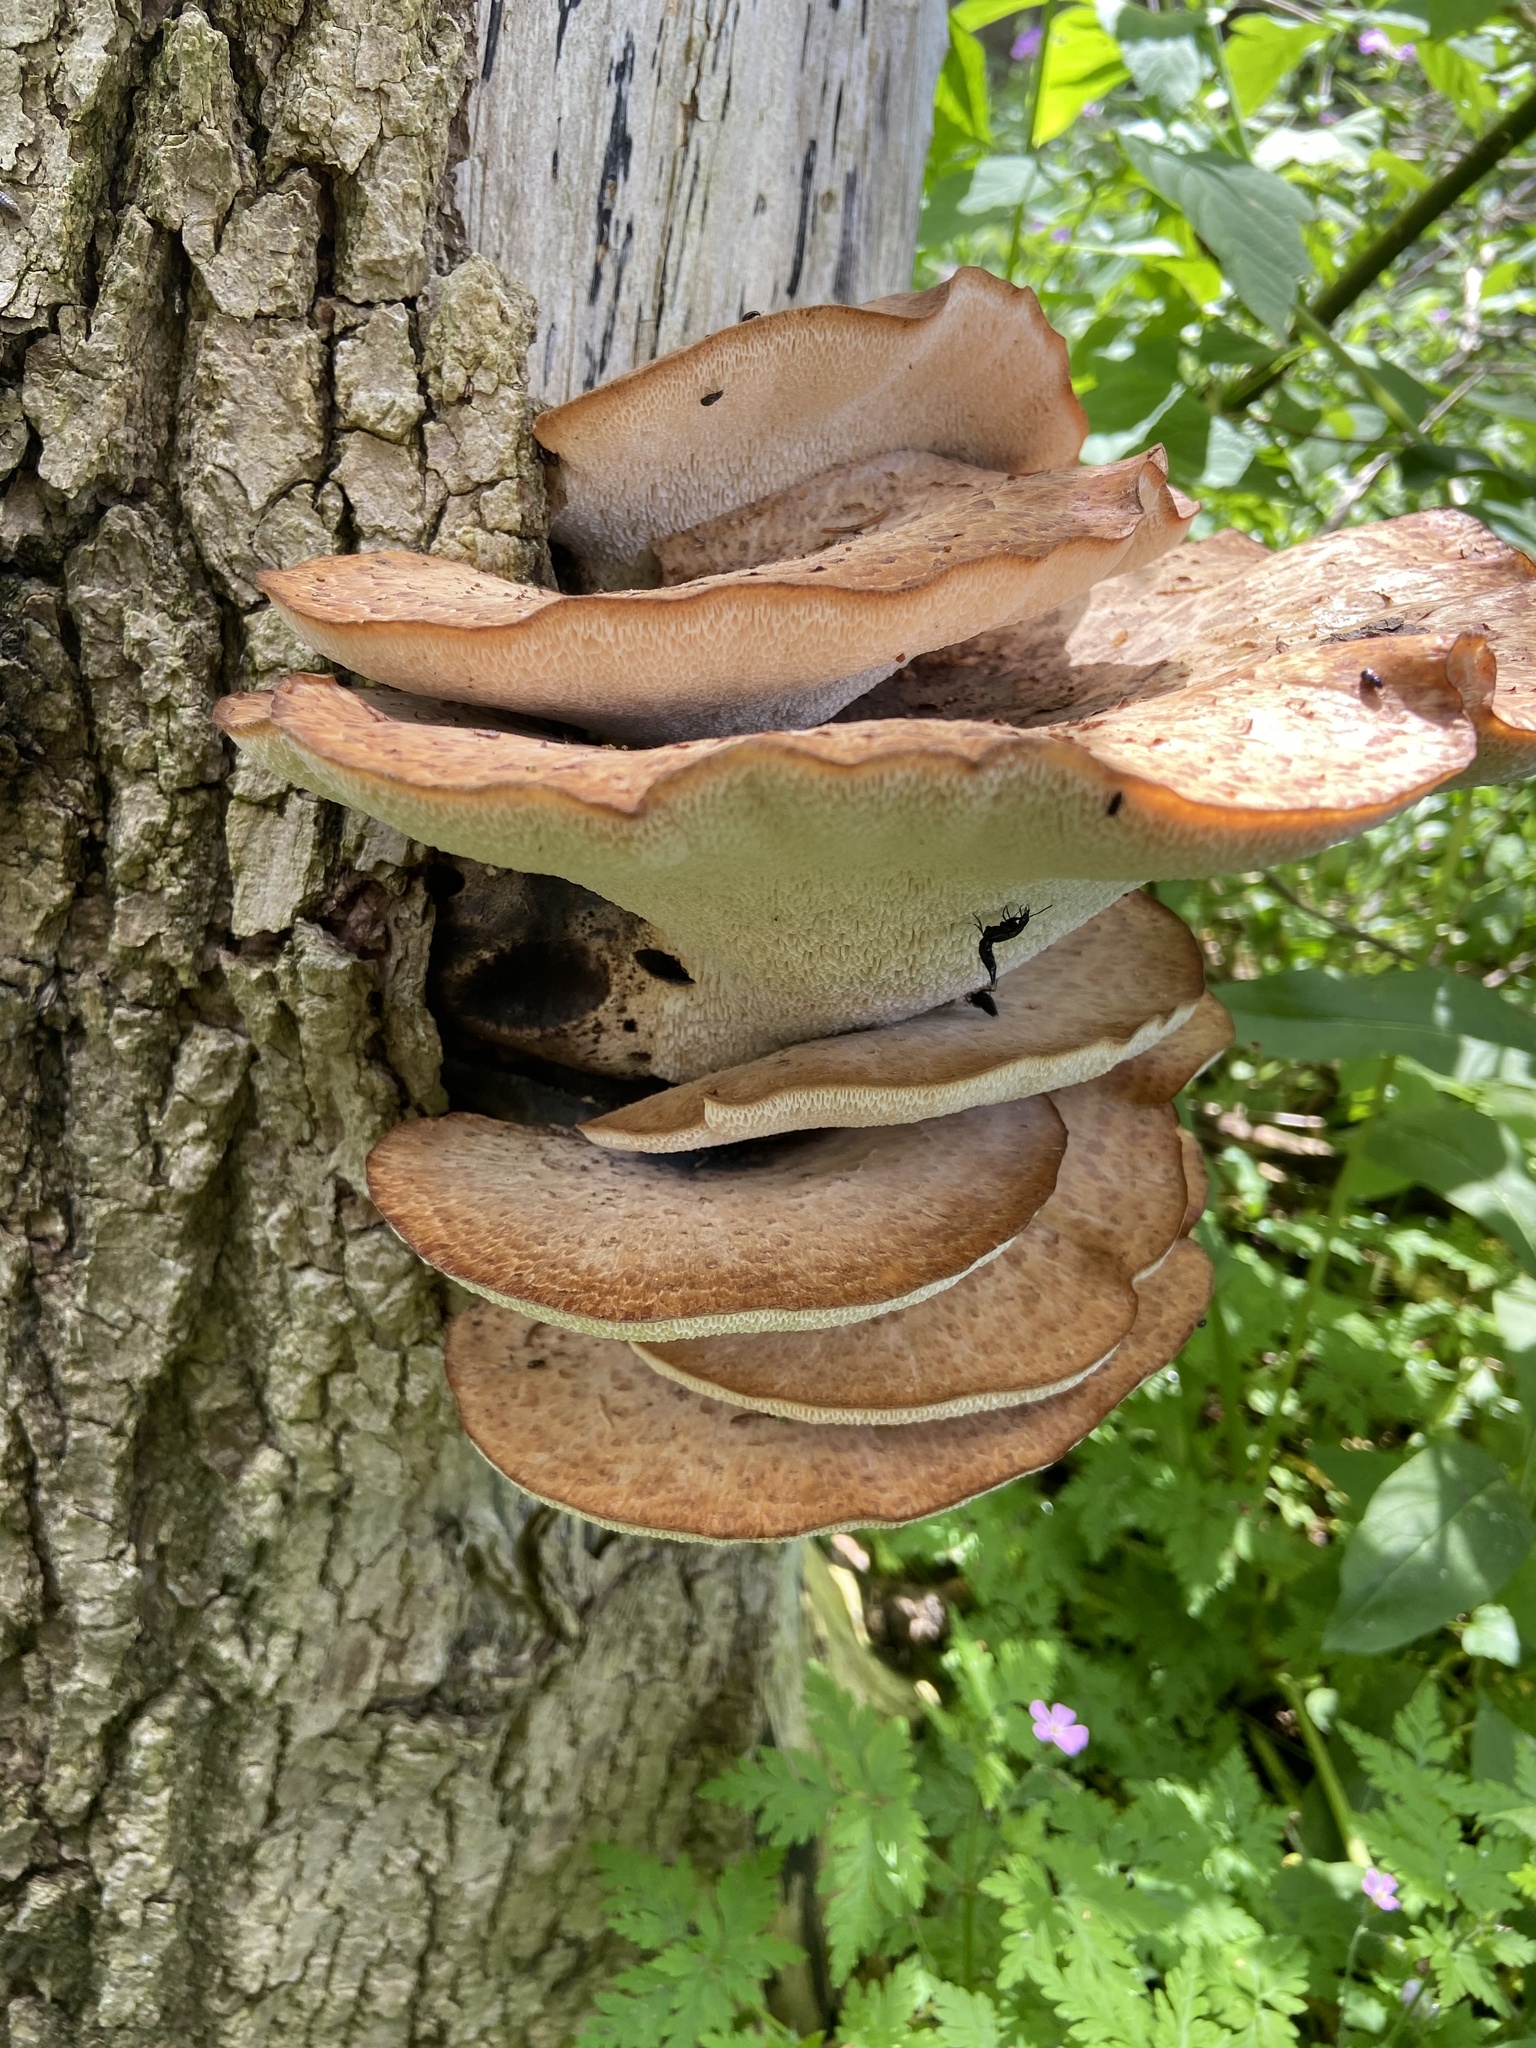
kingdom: Fungi
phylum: Basidiomycota
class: Agaricomycetes
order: Polyporales
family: Polyporaceae
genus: Cerioporus
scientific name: Cerioporus squamosus
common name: Dryad's saddle
